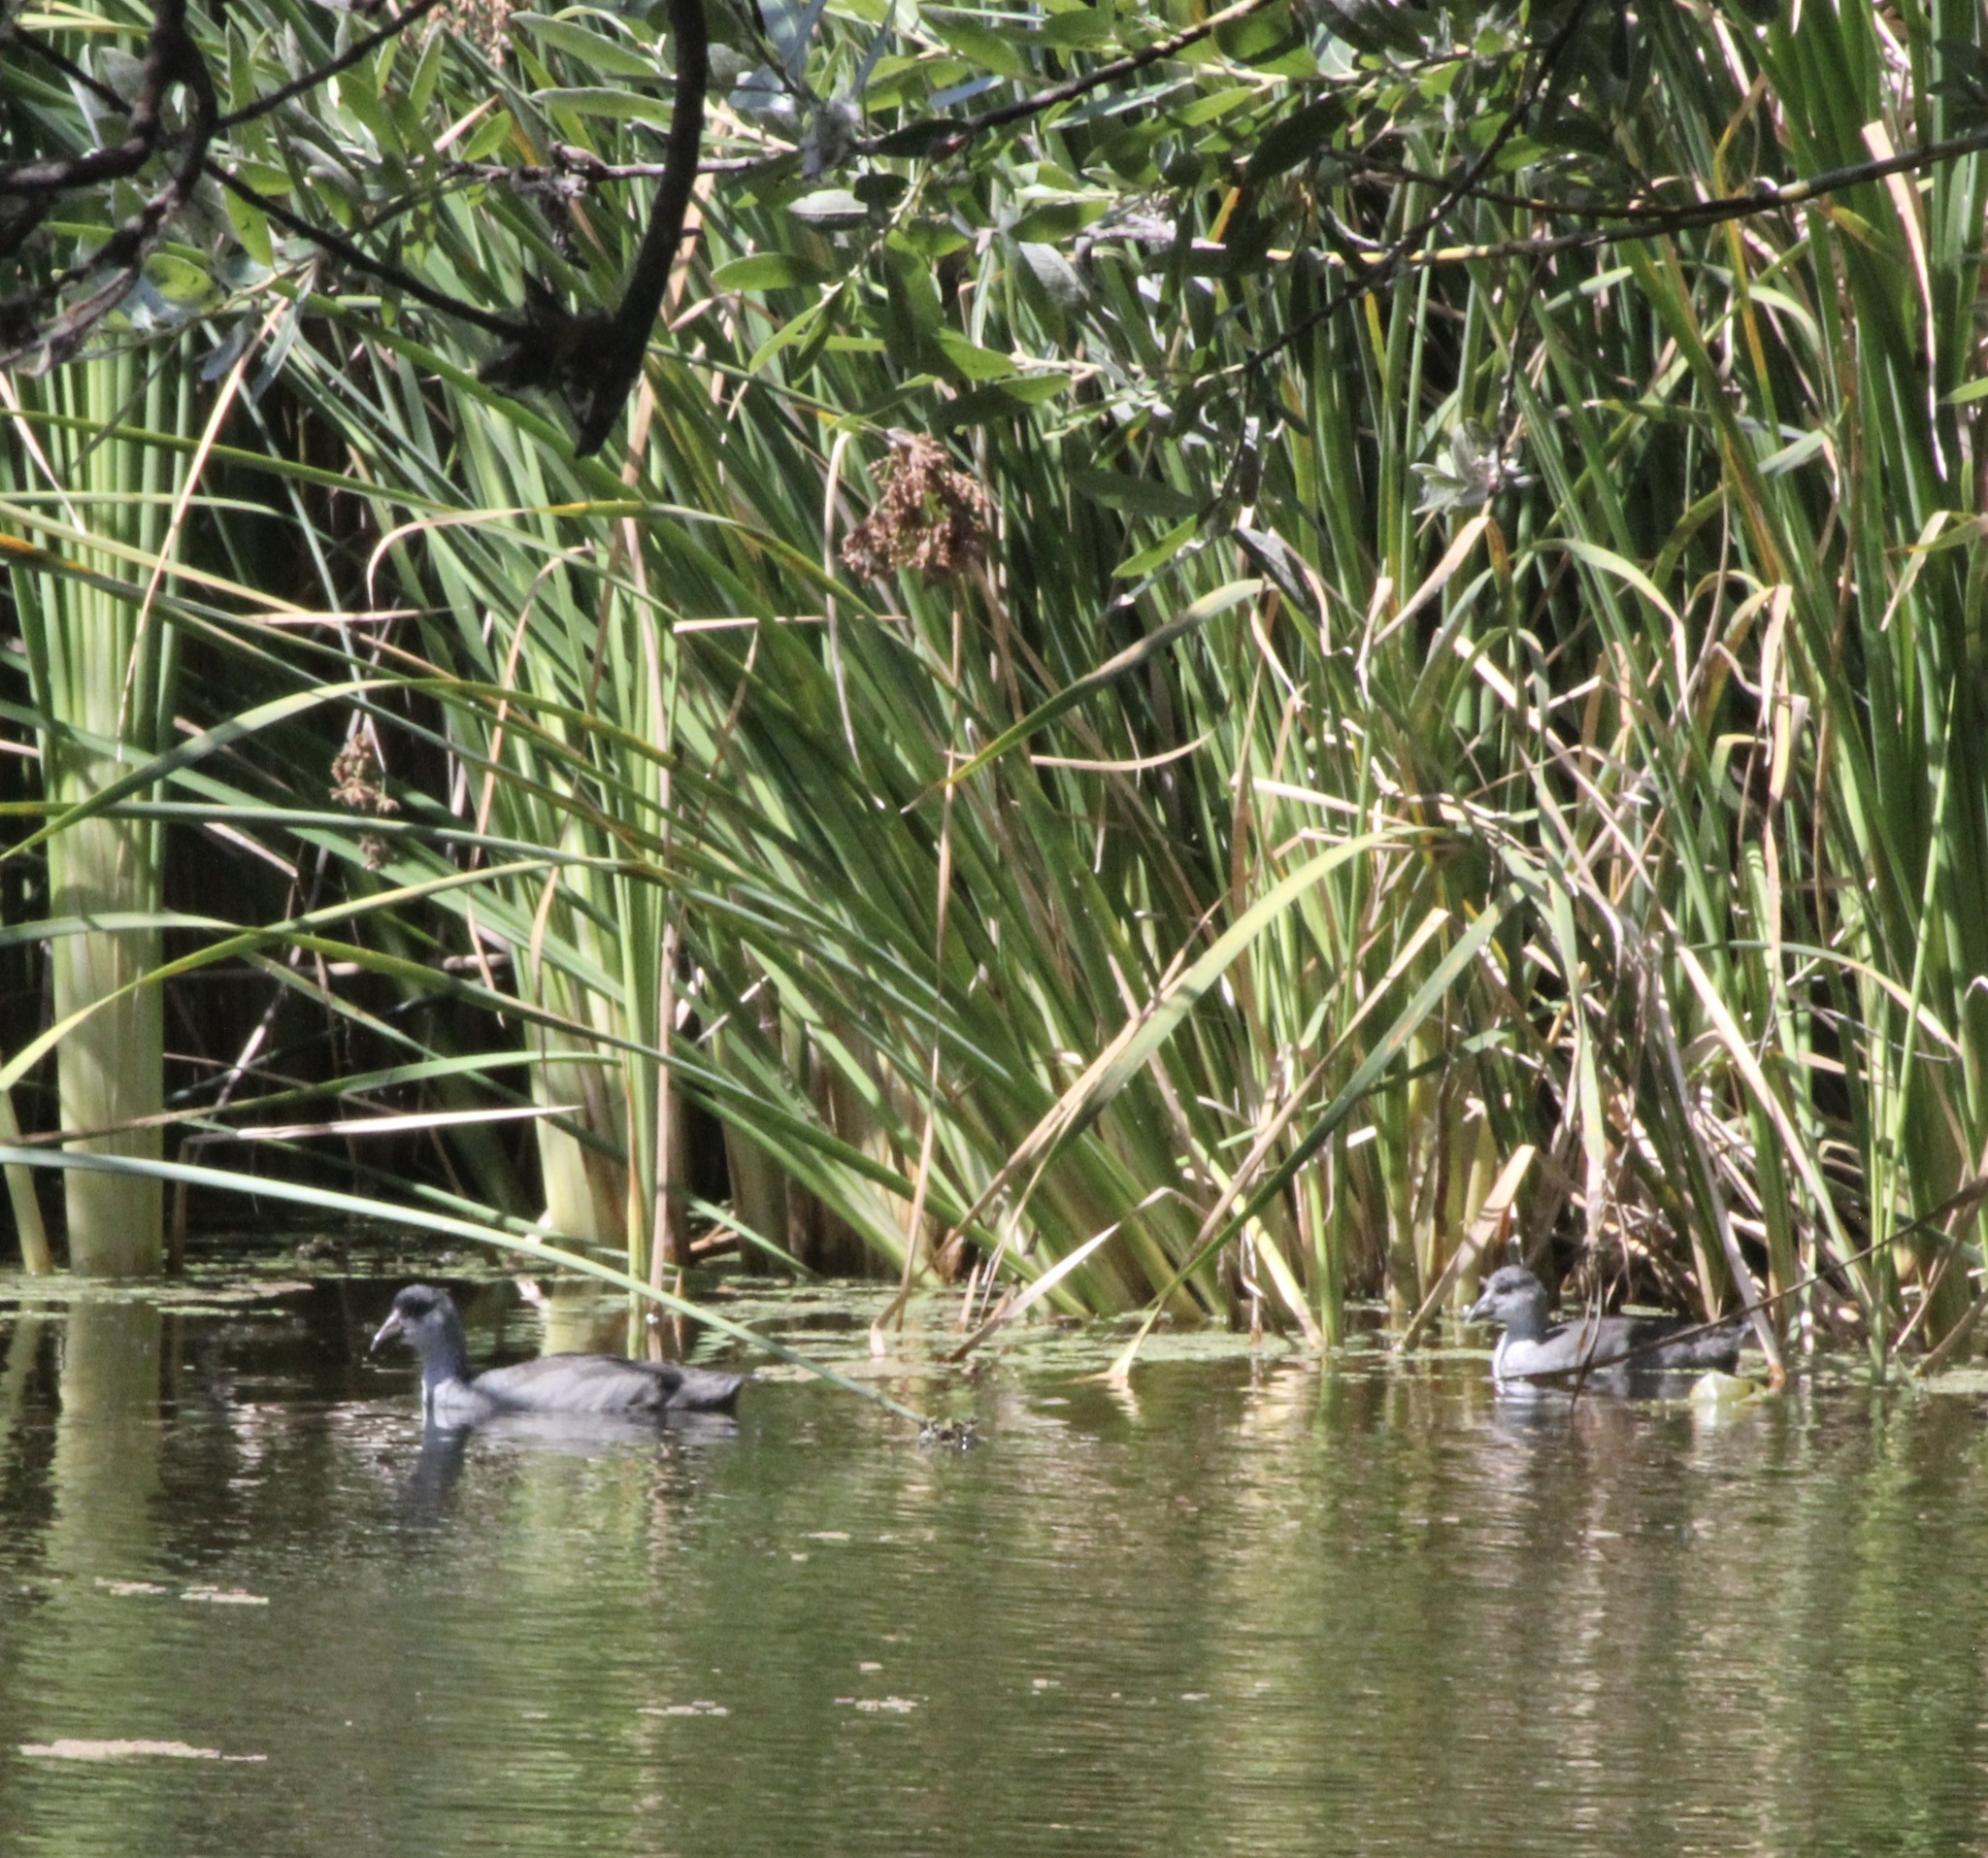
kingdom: Animalia
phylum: Chordata
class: Aves
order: Gruiformes
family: Rallidae
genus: Fulica
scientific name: Fulica americana
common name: American coot
